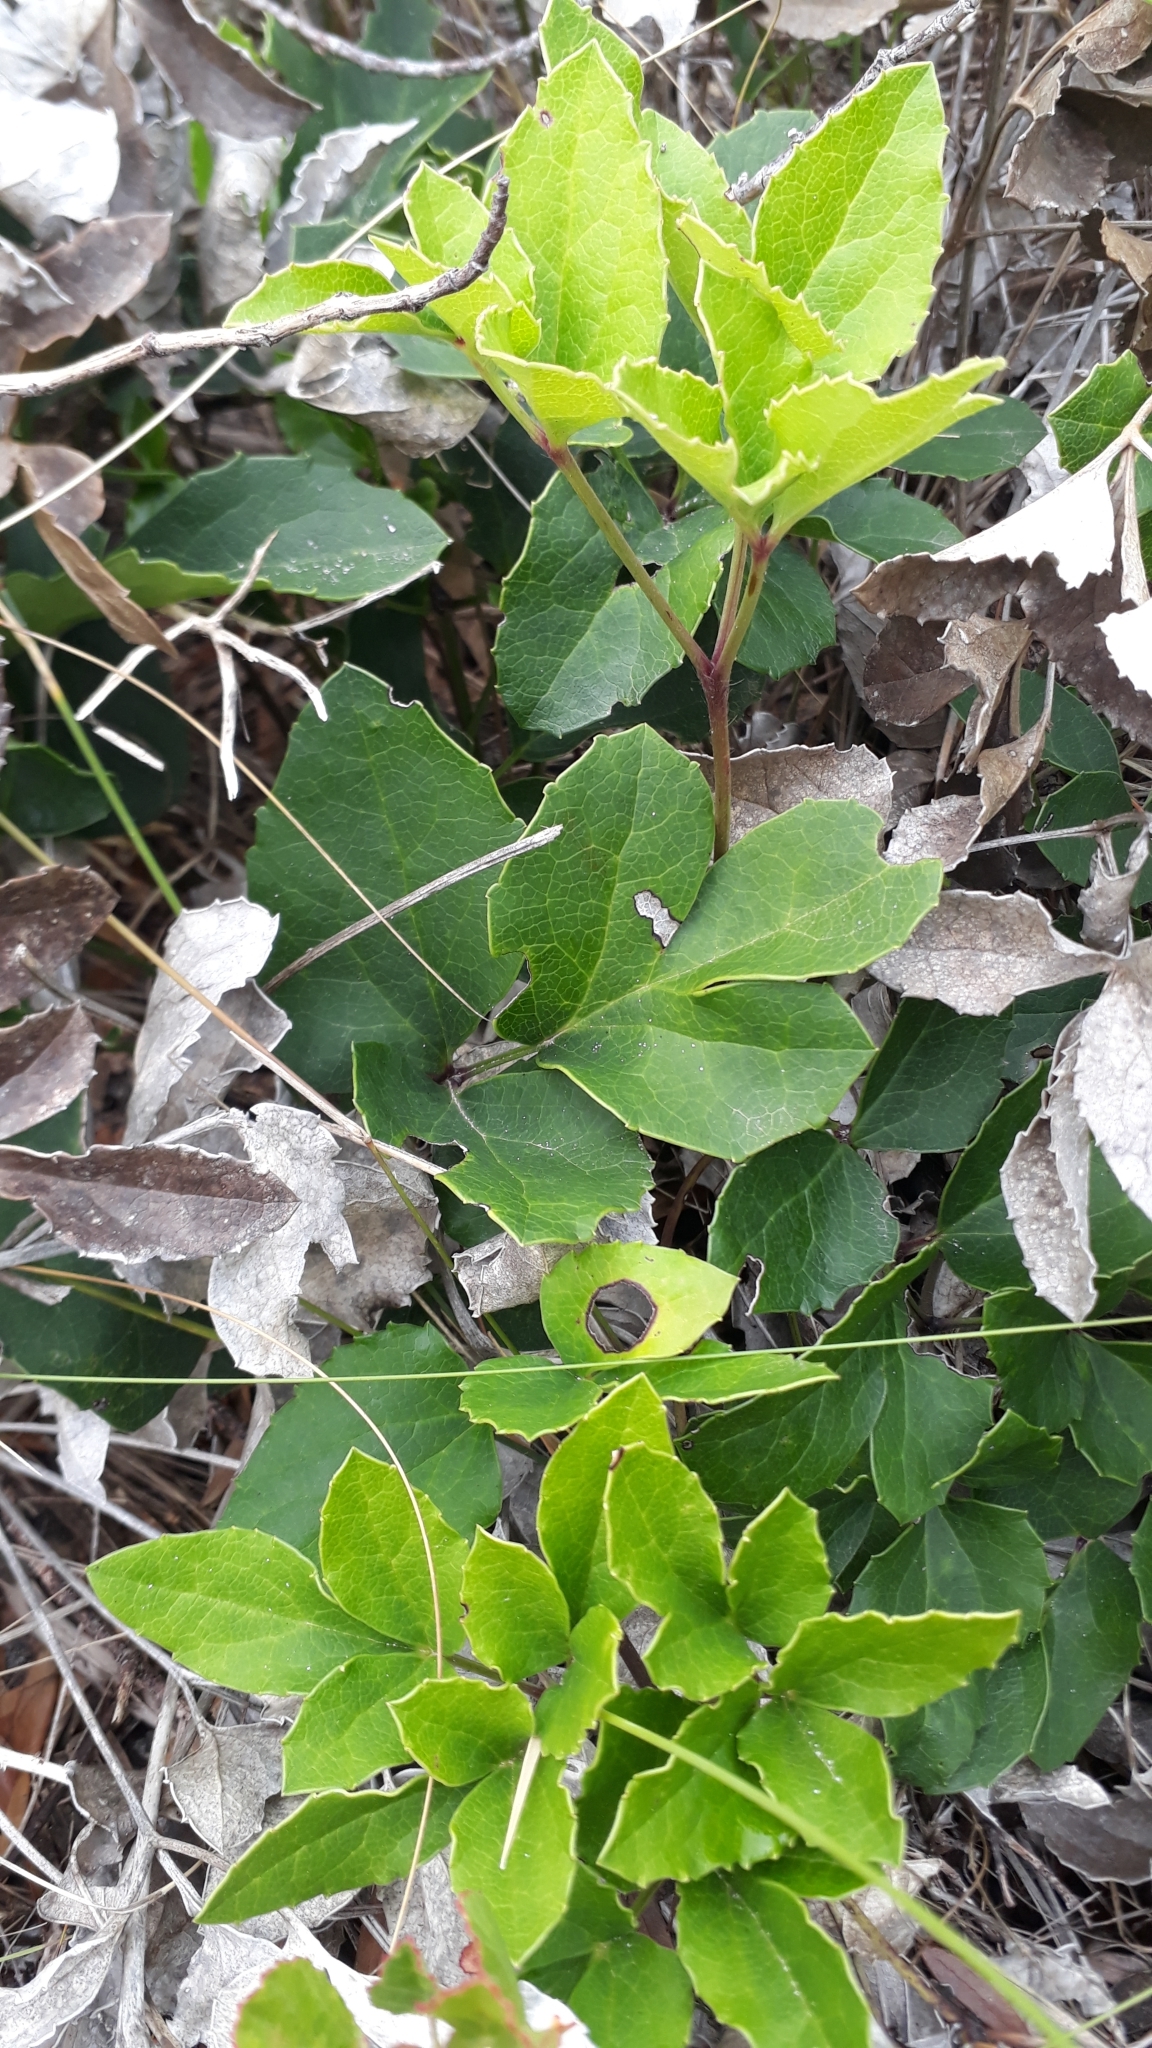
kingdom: Plantae
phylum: Tracheophyta
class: Magnoliopsida
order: Ranunculales
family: Ranunculaceae
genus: Knowltonia
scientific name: Knowltonia vesicatoria
